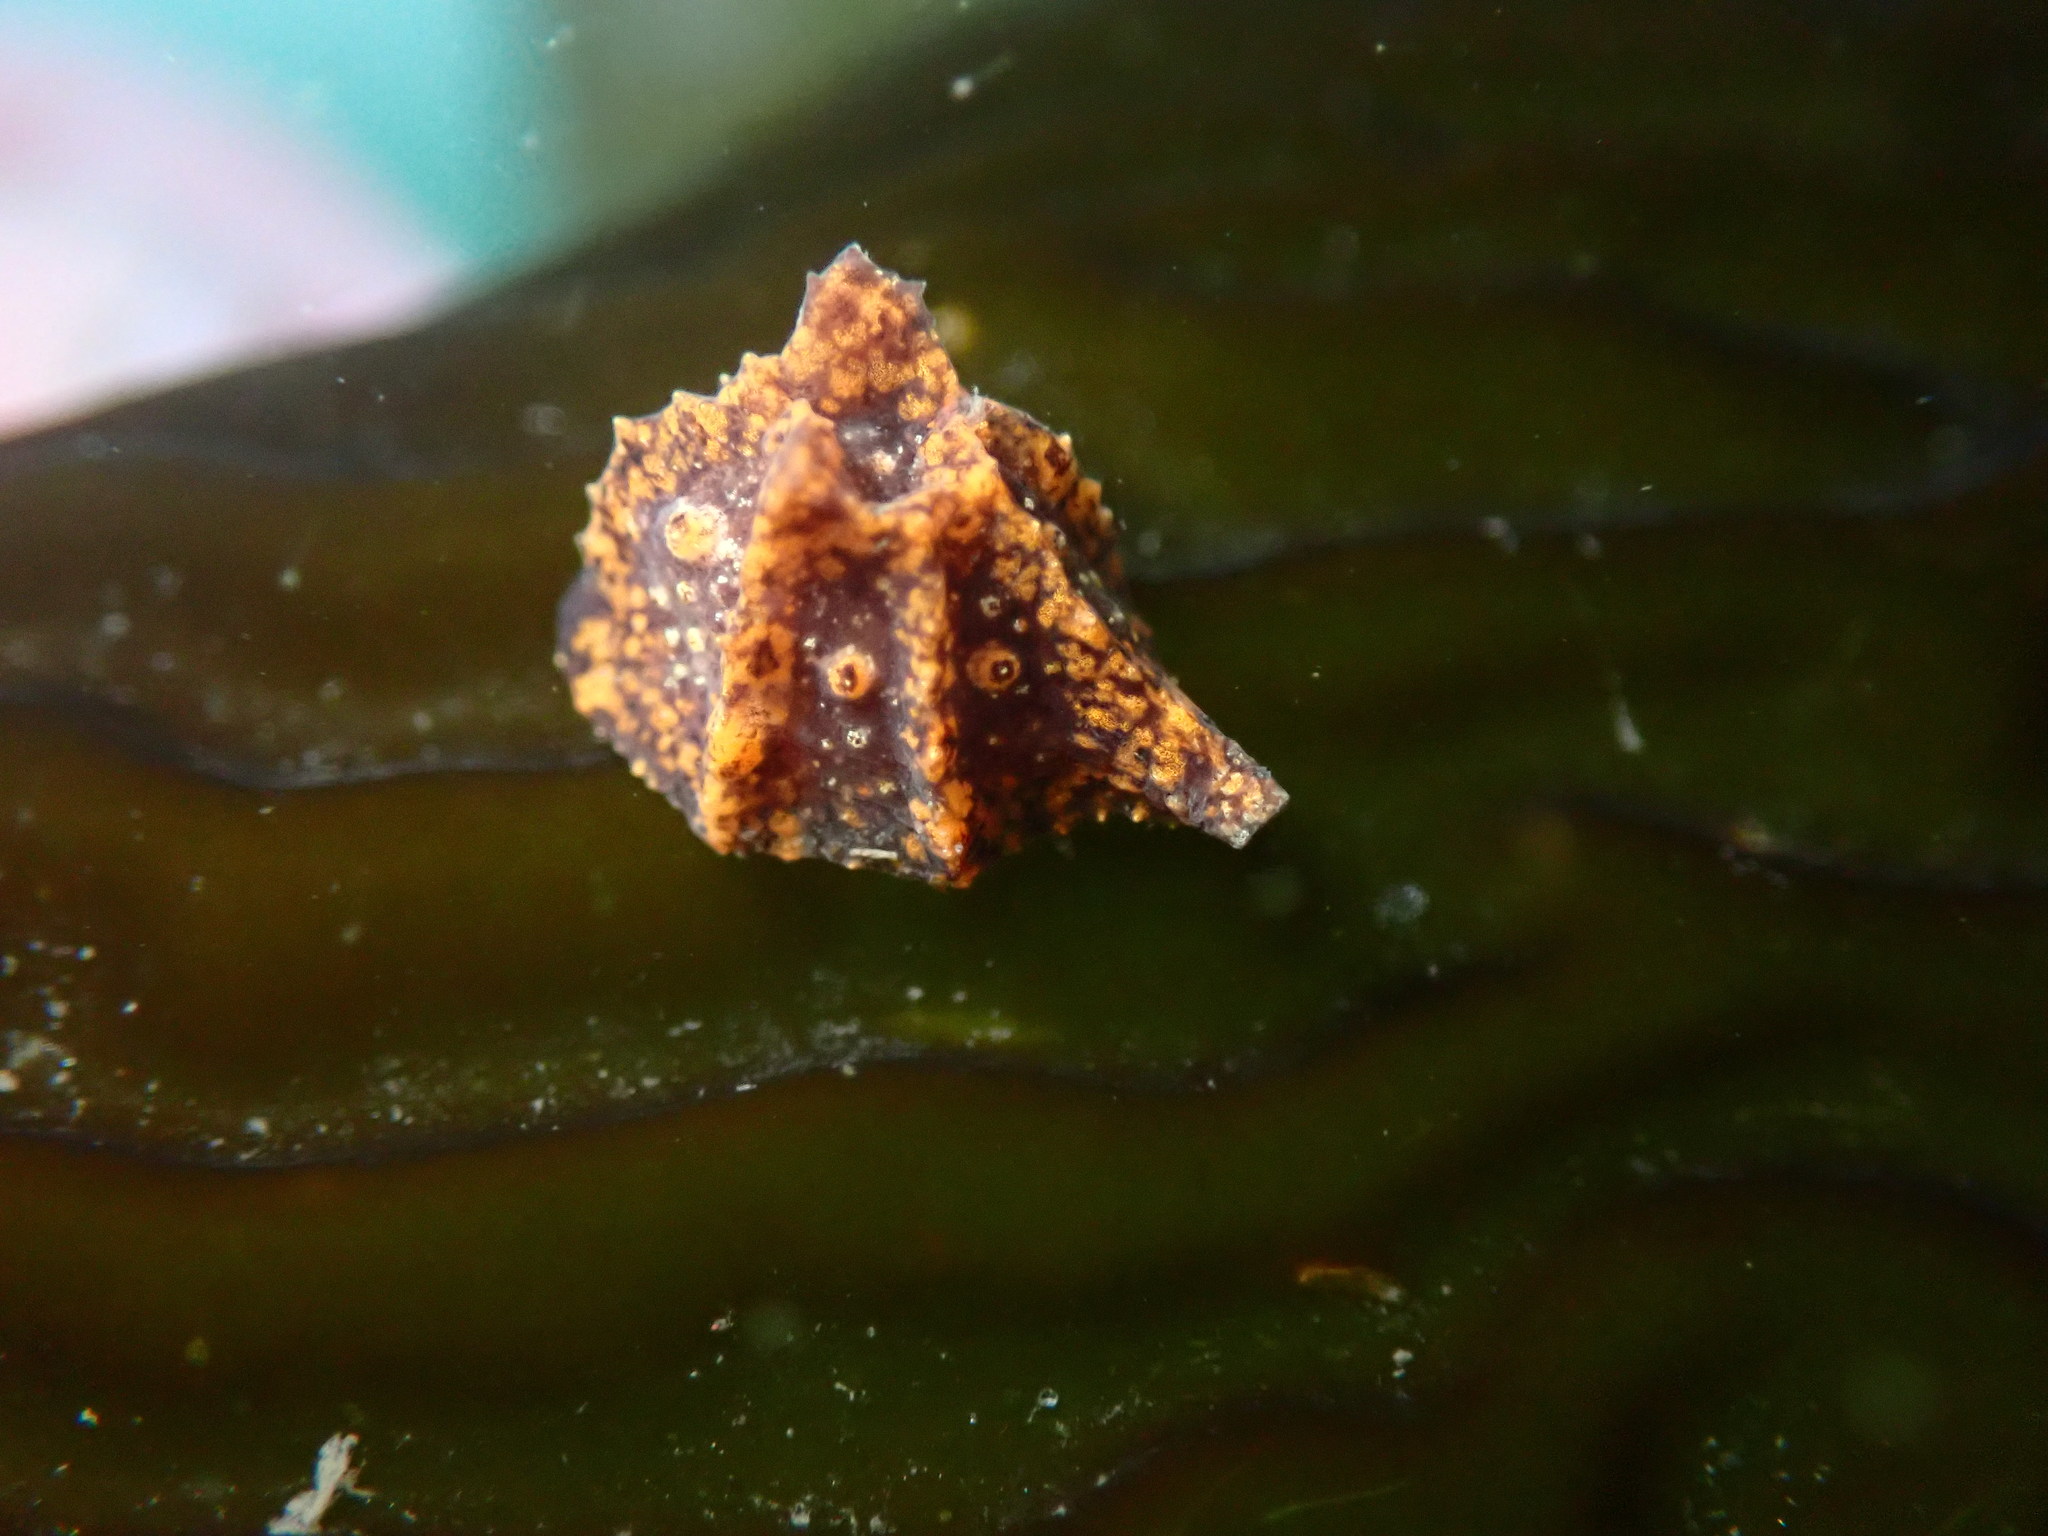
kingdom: Animalia
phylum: Mollusca
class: Gastropoda
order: Littorinimorpha
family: Velutinidae
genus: Hainotis
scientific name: Hainotis sharonae
